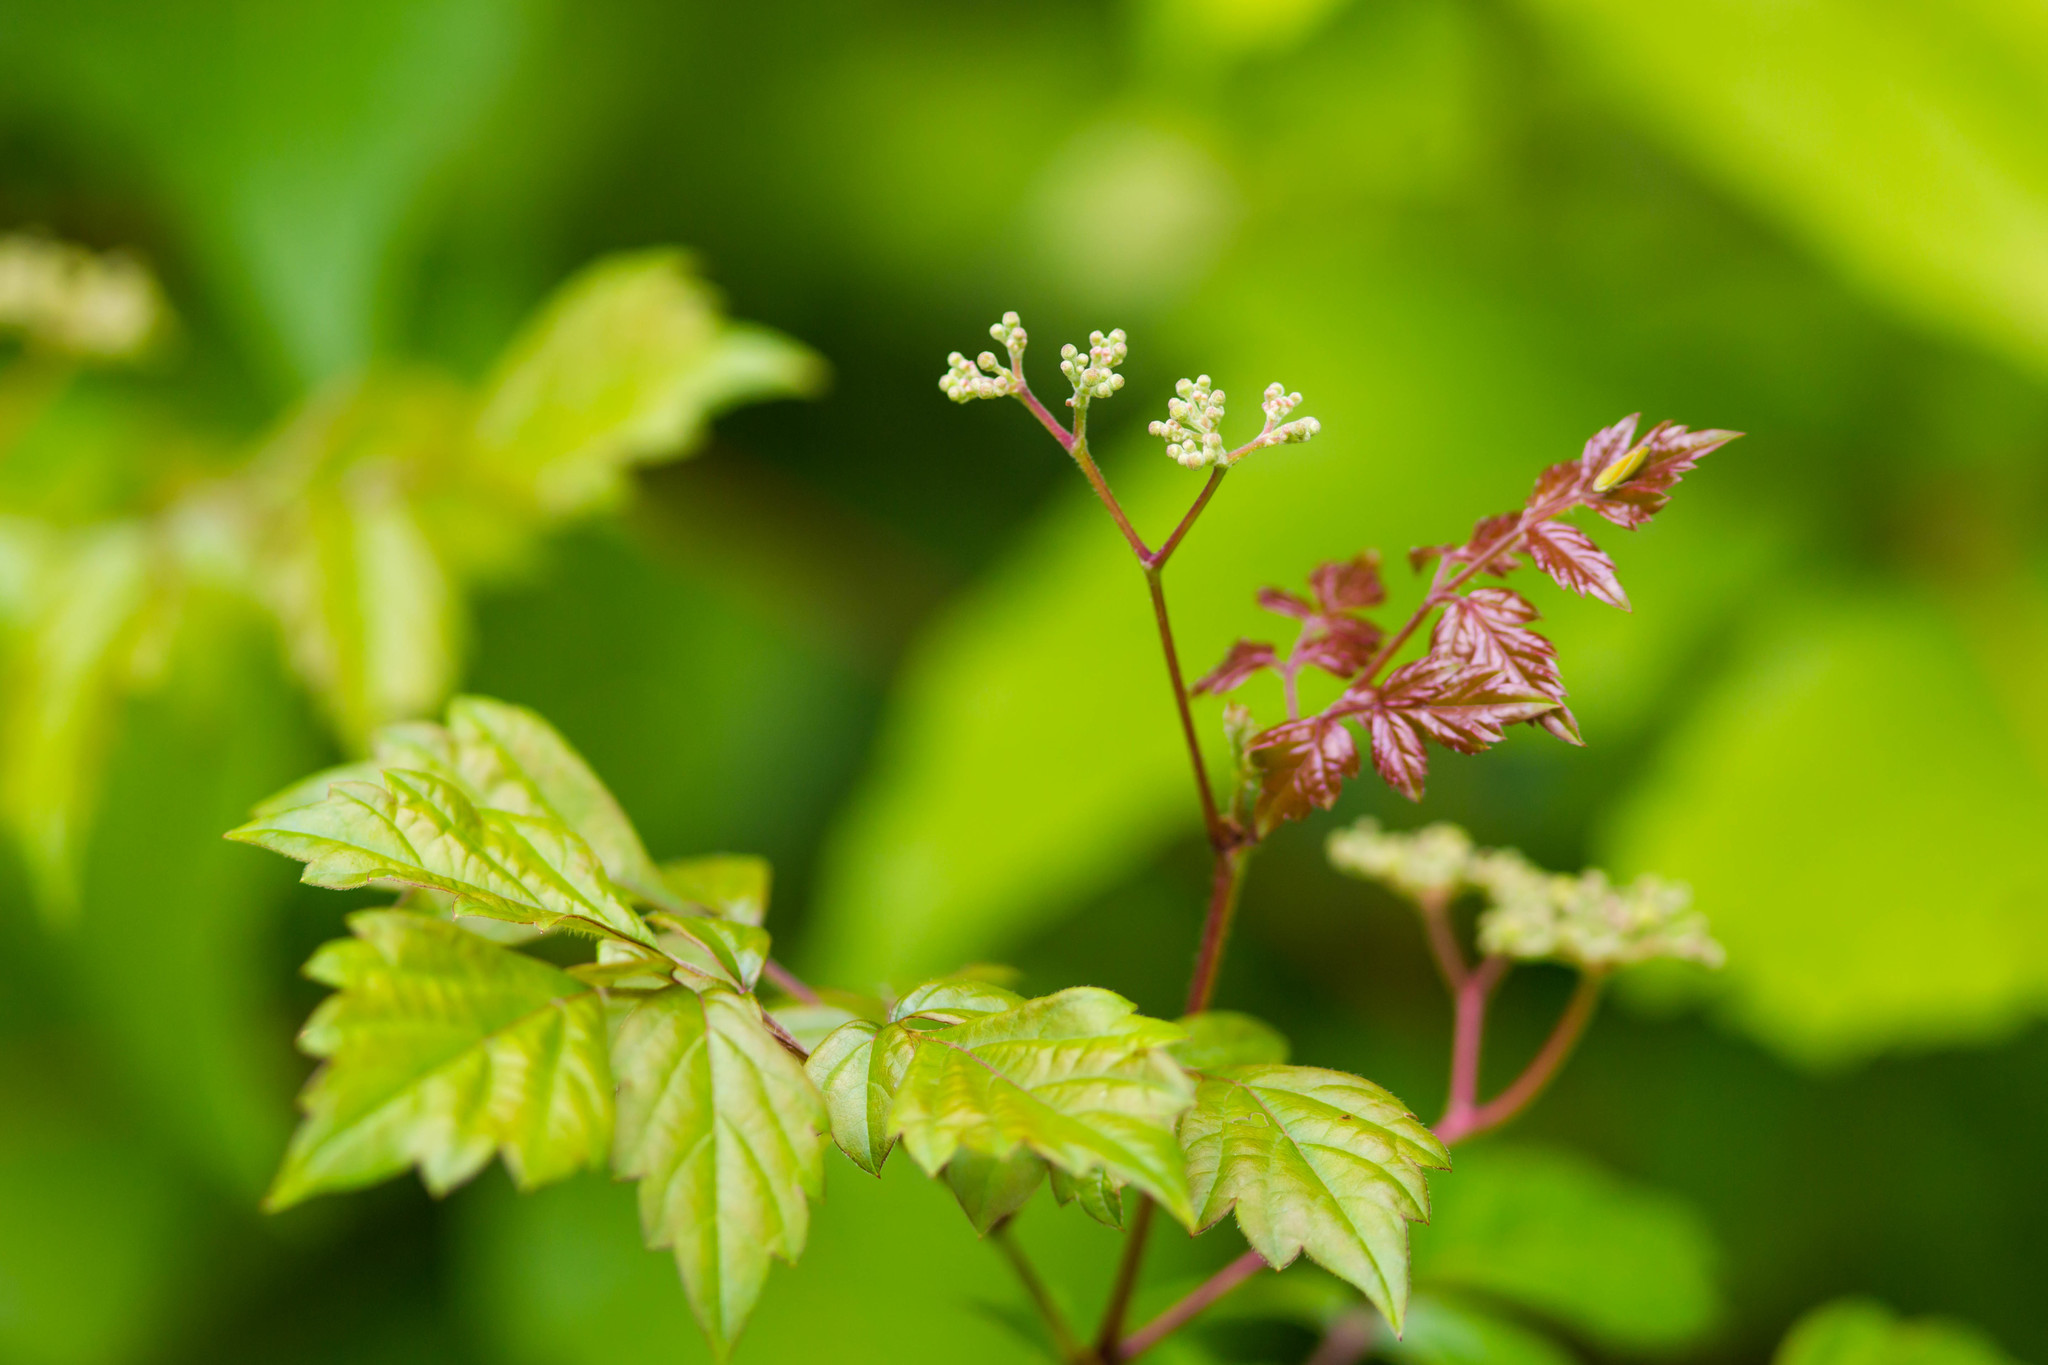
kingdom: Plantae
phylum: Tracheophyta
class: Magnoliopsida
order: Vitales
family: Vitaceae
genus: Nekemias
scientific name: Nekemias arborea
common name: Peppervine
